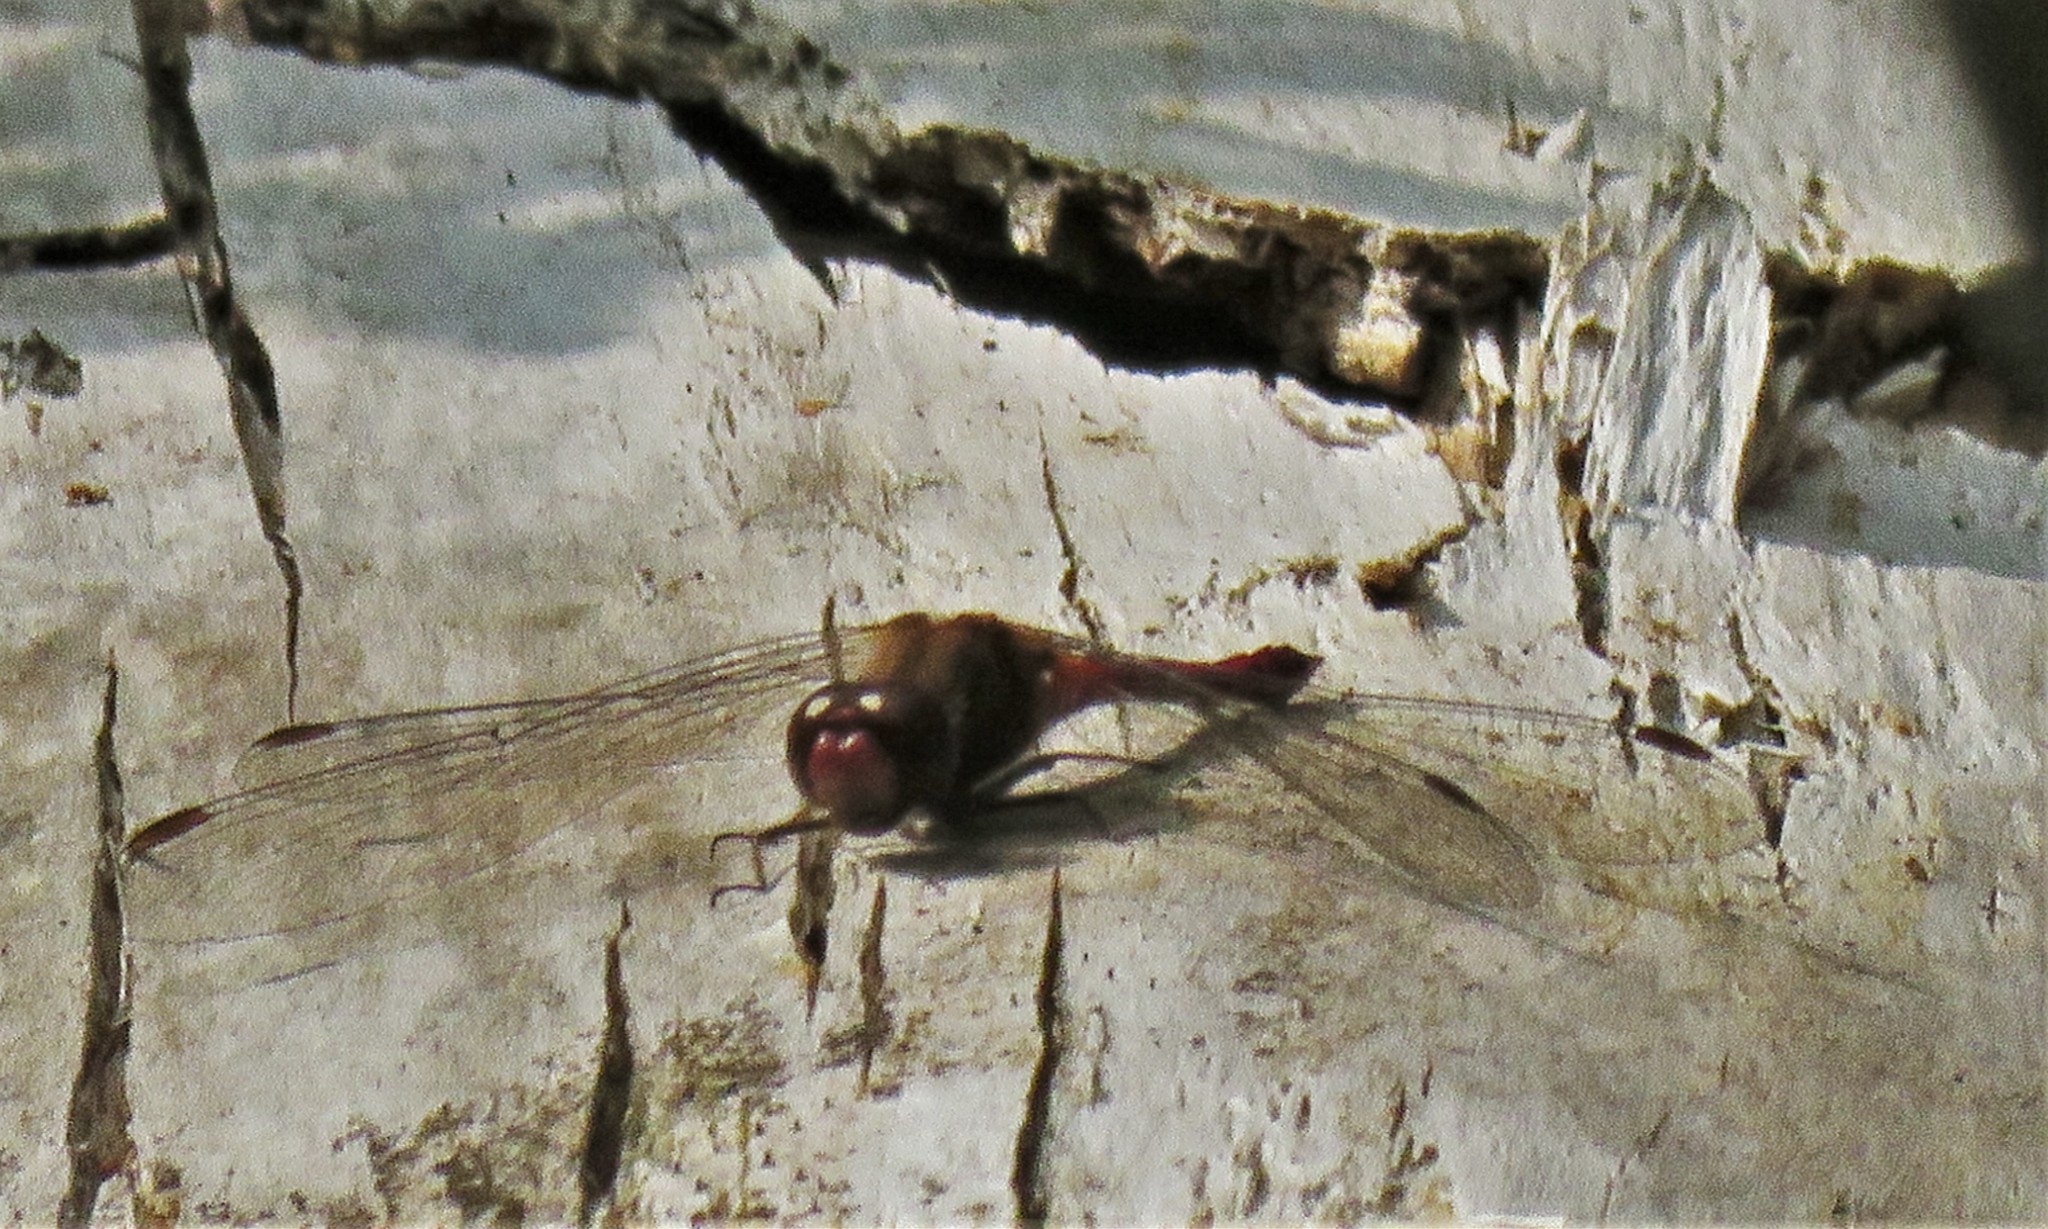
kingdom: Animalia
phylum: Arthropoda
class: Insecta
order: Odonata
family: Libellulidae
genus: Sympetrum
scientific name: Sympetrum vicinum
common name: Autumn meadowhawk
